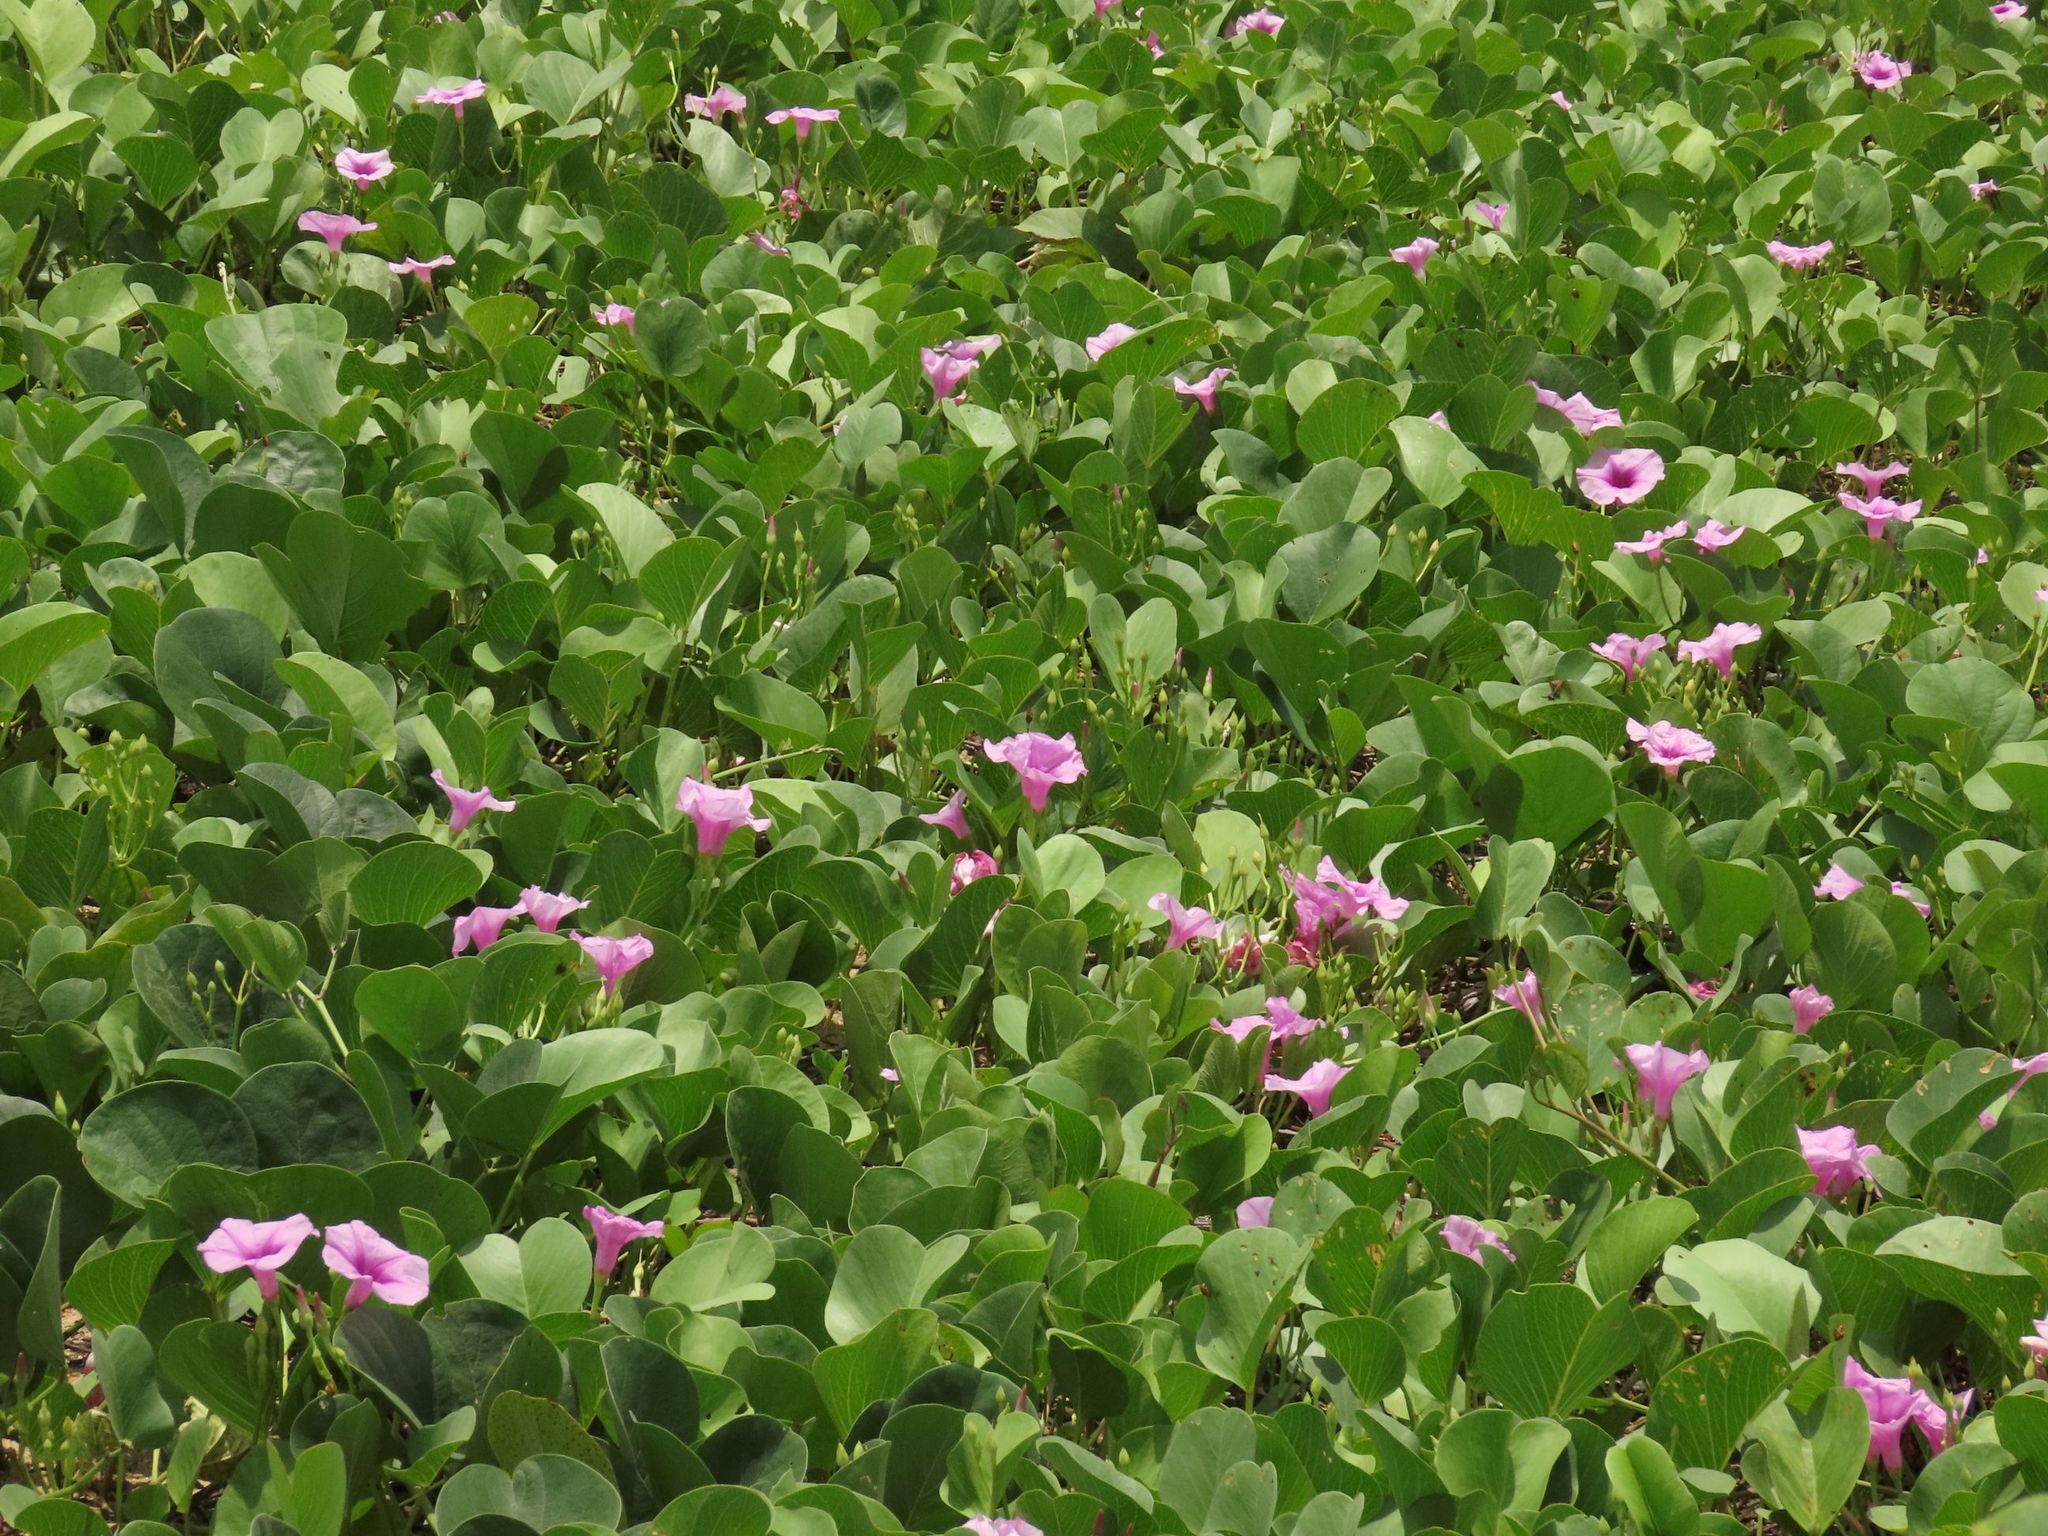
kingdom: Plantae
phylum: Tracheophyta
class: Magnoliopsida
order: Solanales
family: Convolvulaceae
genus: Ipomoea
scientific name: Ipomoea pes-caprae
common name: Beach morning glory
